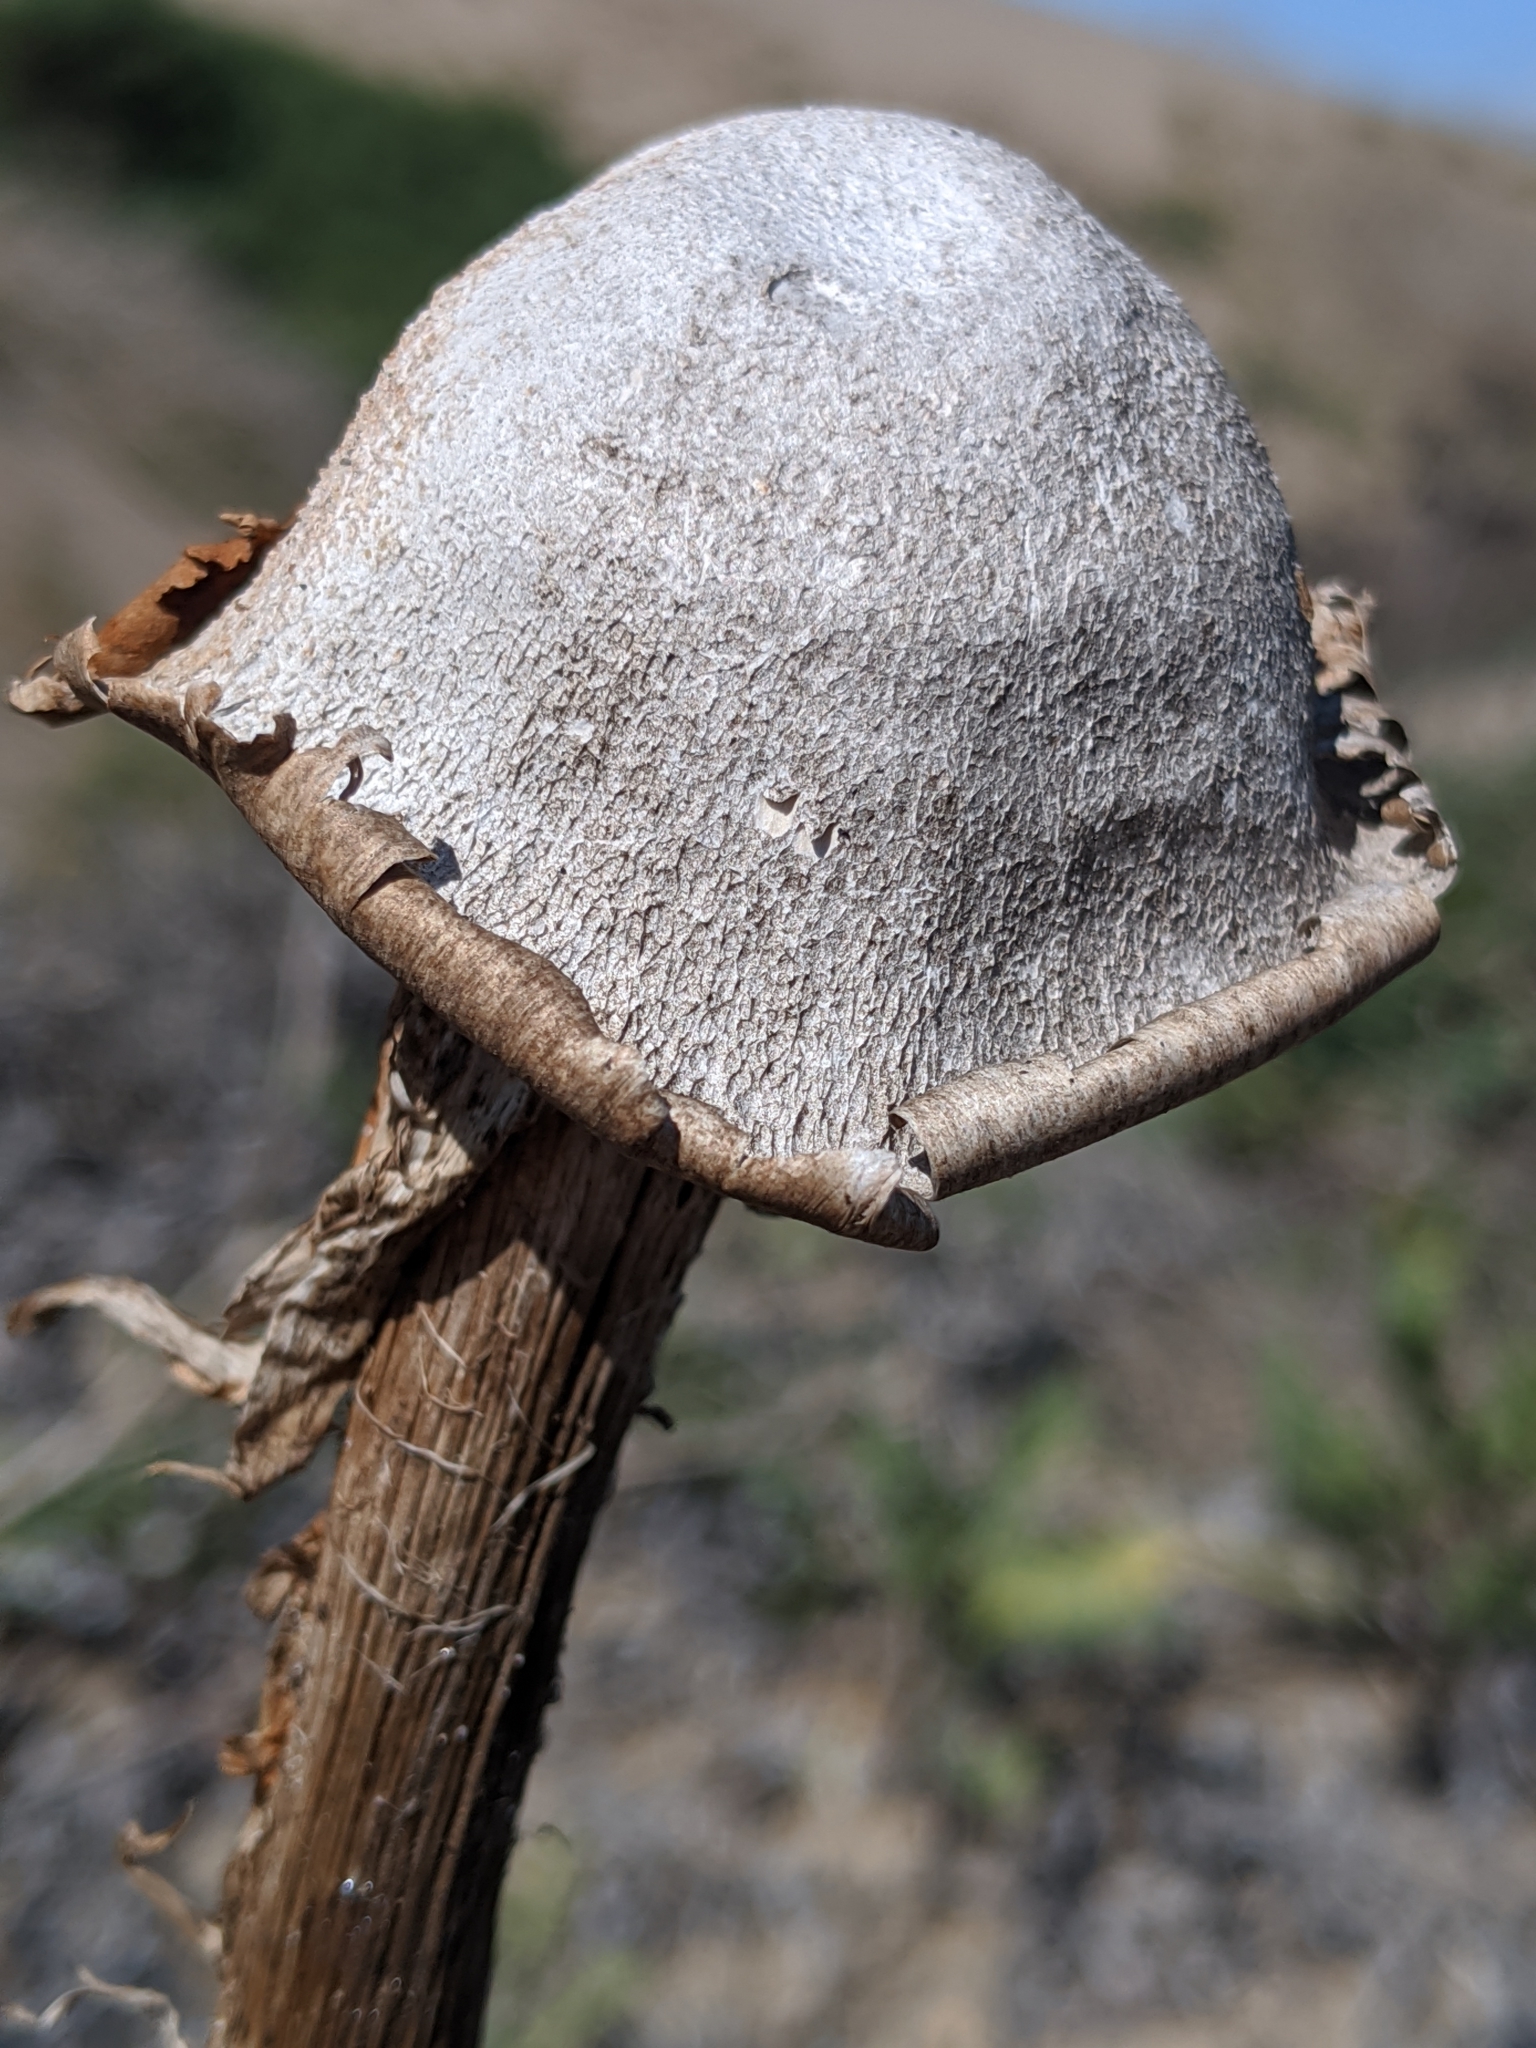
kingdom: Fungi
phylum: Basidiomycota
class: Agaricomycetes
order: Agaricales
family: Agaricaceae
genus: Battarrea
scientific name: Battarrea phalloides
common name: Sandy stiltball
